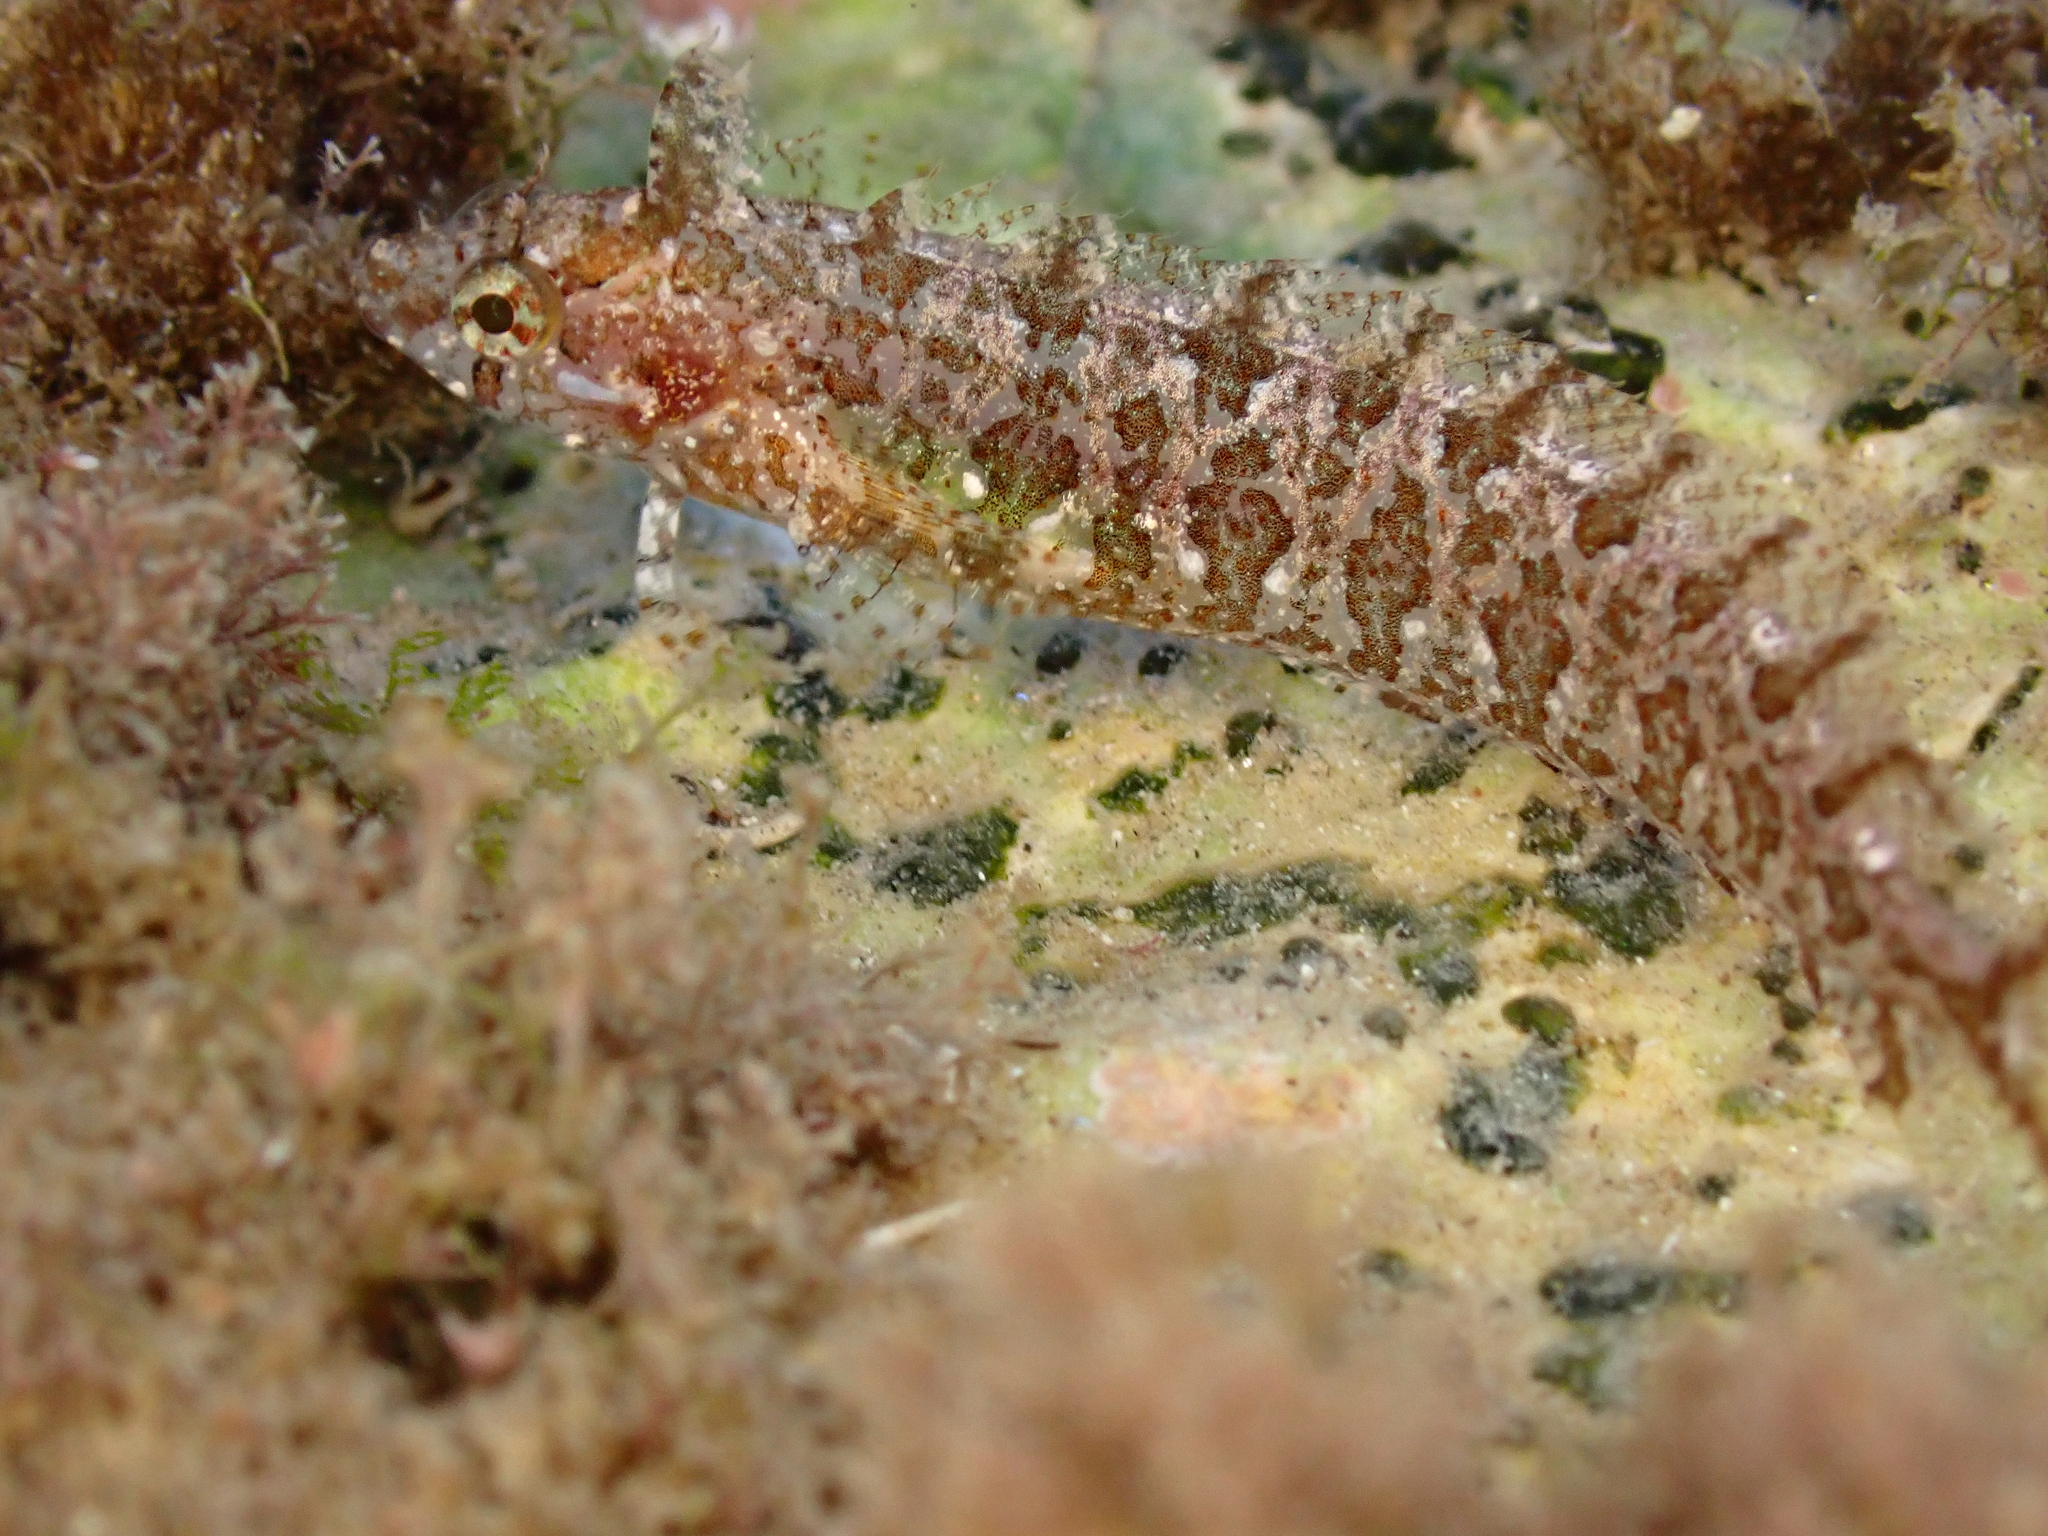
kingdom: Animalia
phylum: Chordata
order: Perciformes
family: Clinidae
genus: Clinitrachus
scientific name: Clinitrachus argentatus
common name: Cline
